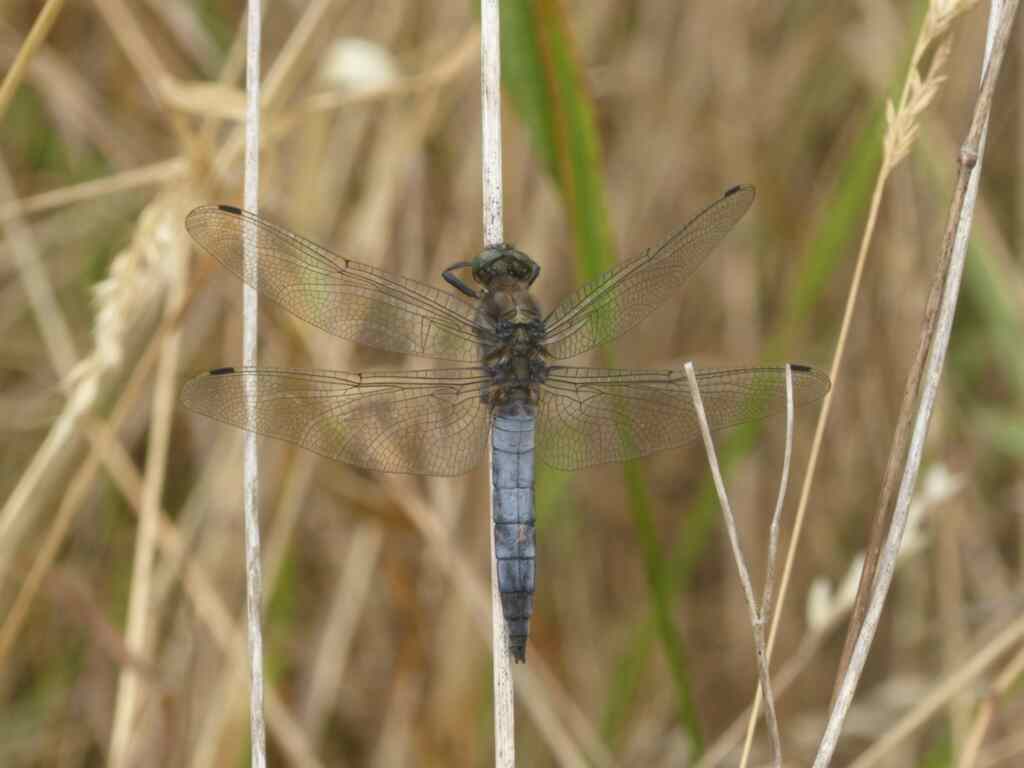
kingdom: Animalia
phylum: Arthropoda
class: Insecta
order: Odonata
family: Libellulidae
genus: Orthetrum
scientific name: Orthetrum cancellatum
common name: Black-tailed skimmer
